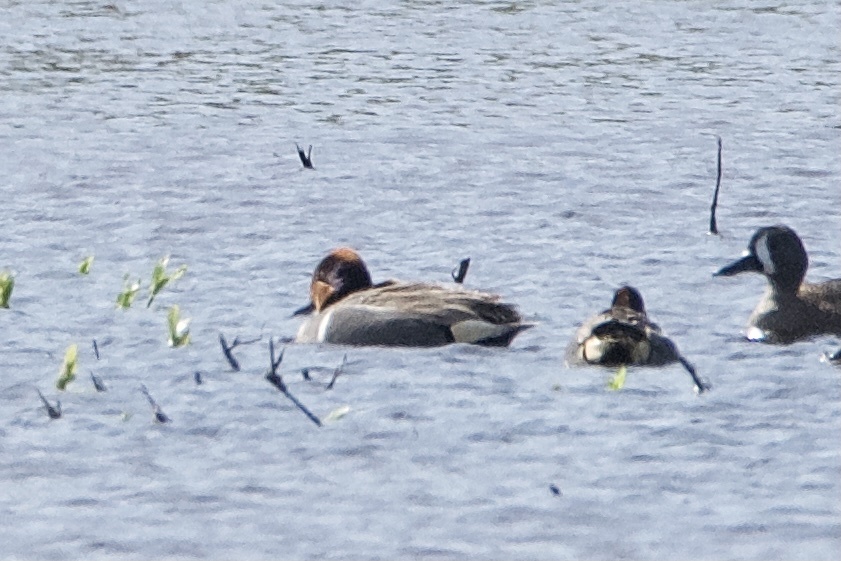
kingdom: Animalia
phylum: Chordata
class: Aves
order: Anseriformes
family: Anatidae
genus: Anas
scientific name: Anas crecca
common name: Eurasian teal
